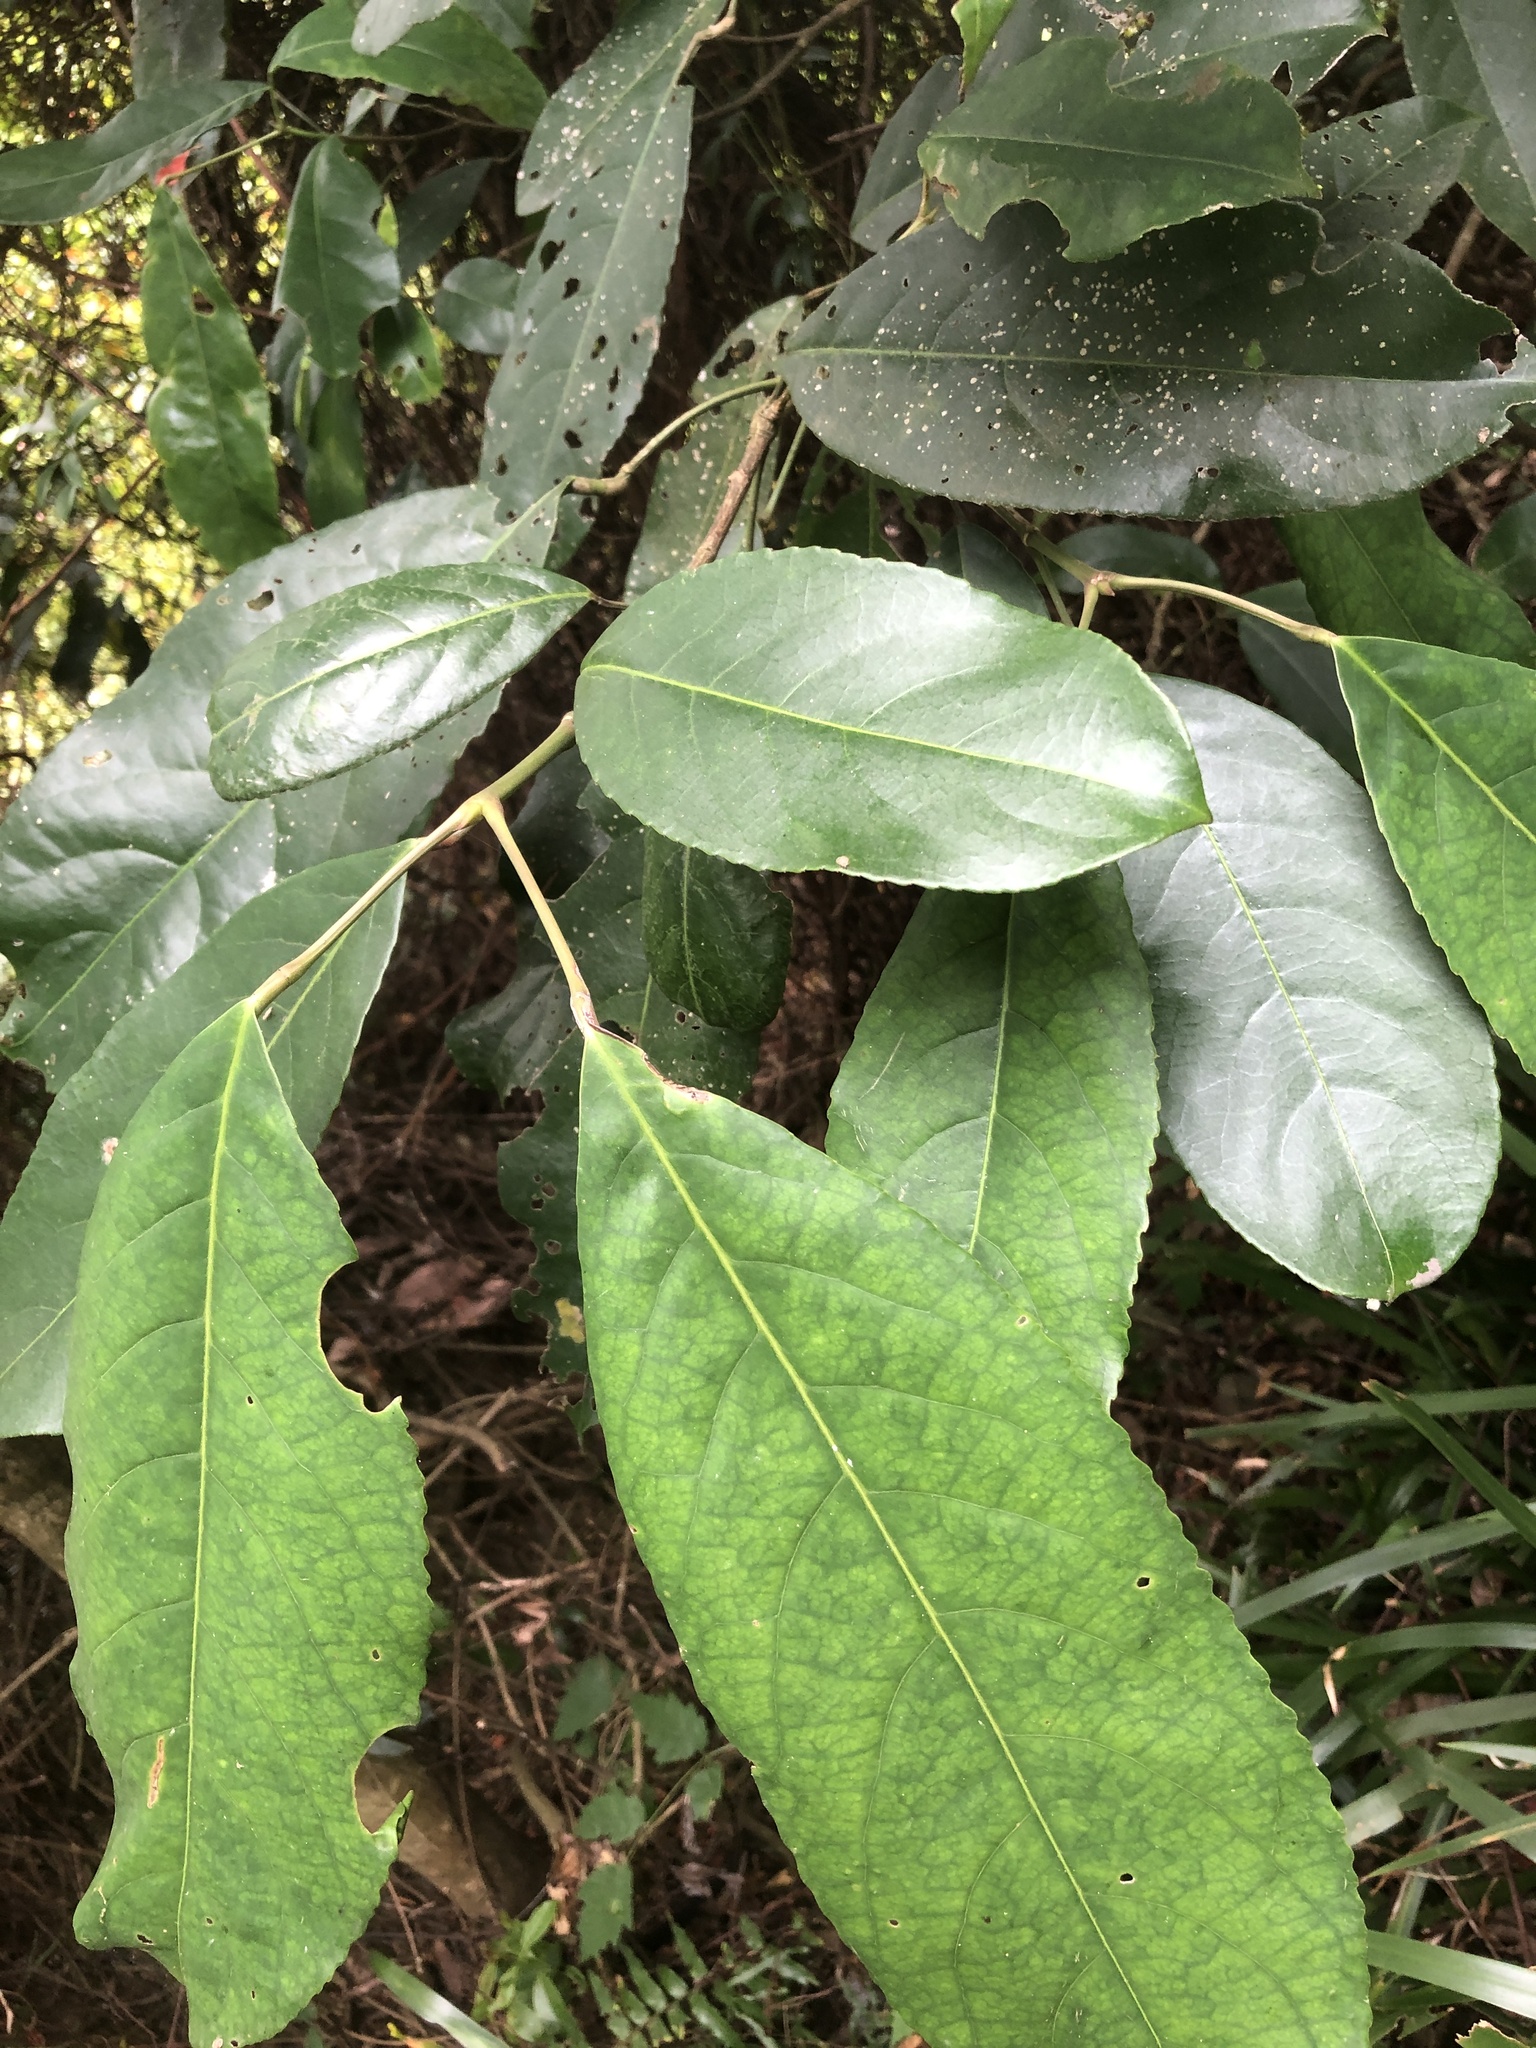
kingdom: Plantae
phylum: Tracheophyta
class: Magnoliopsida
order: Crossosomatales
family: Staphyleaceae
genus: Turpinia
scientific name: Turpinia formosana
